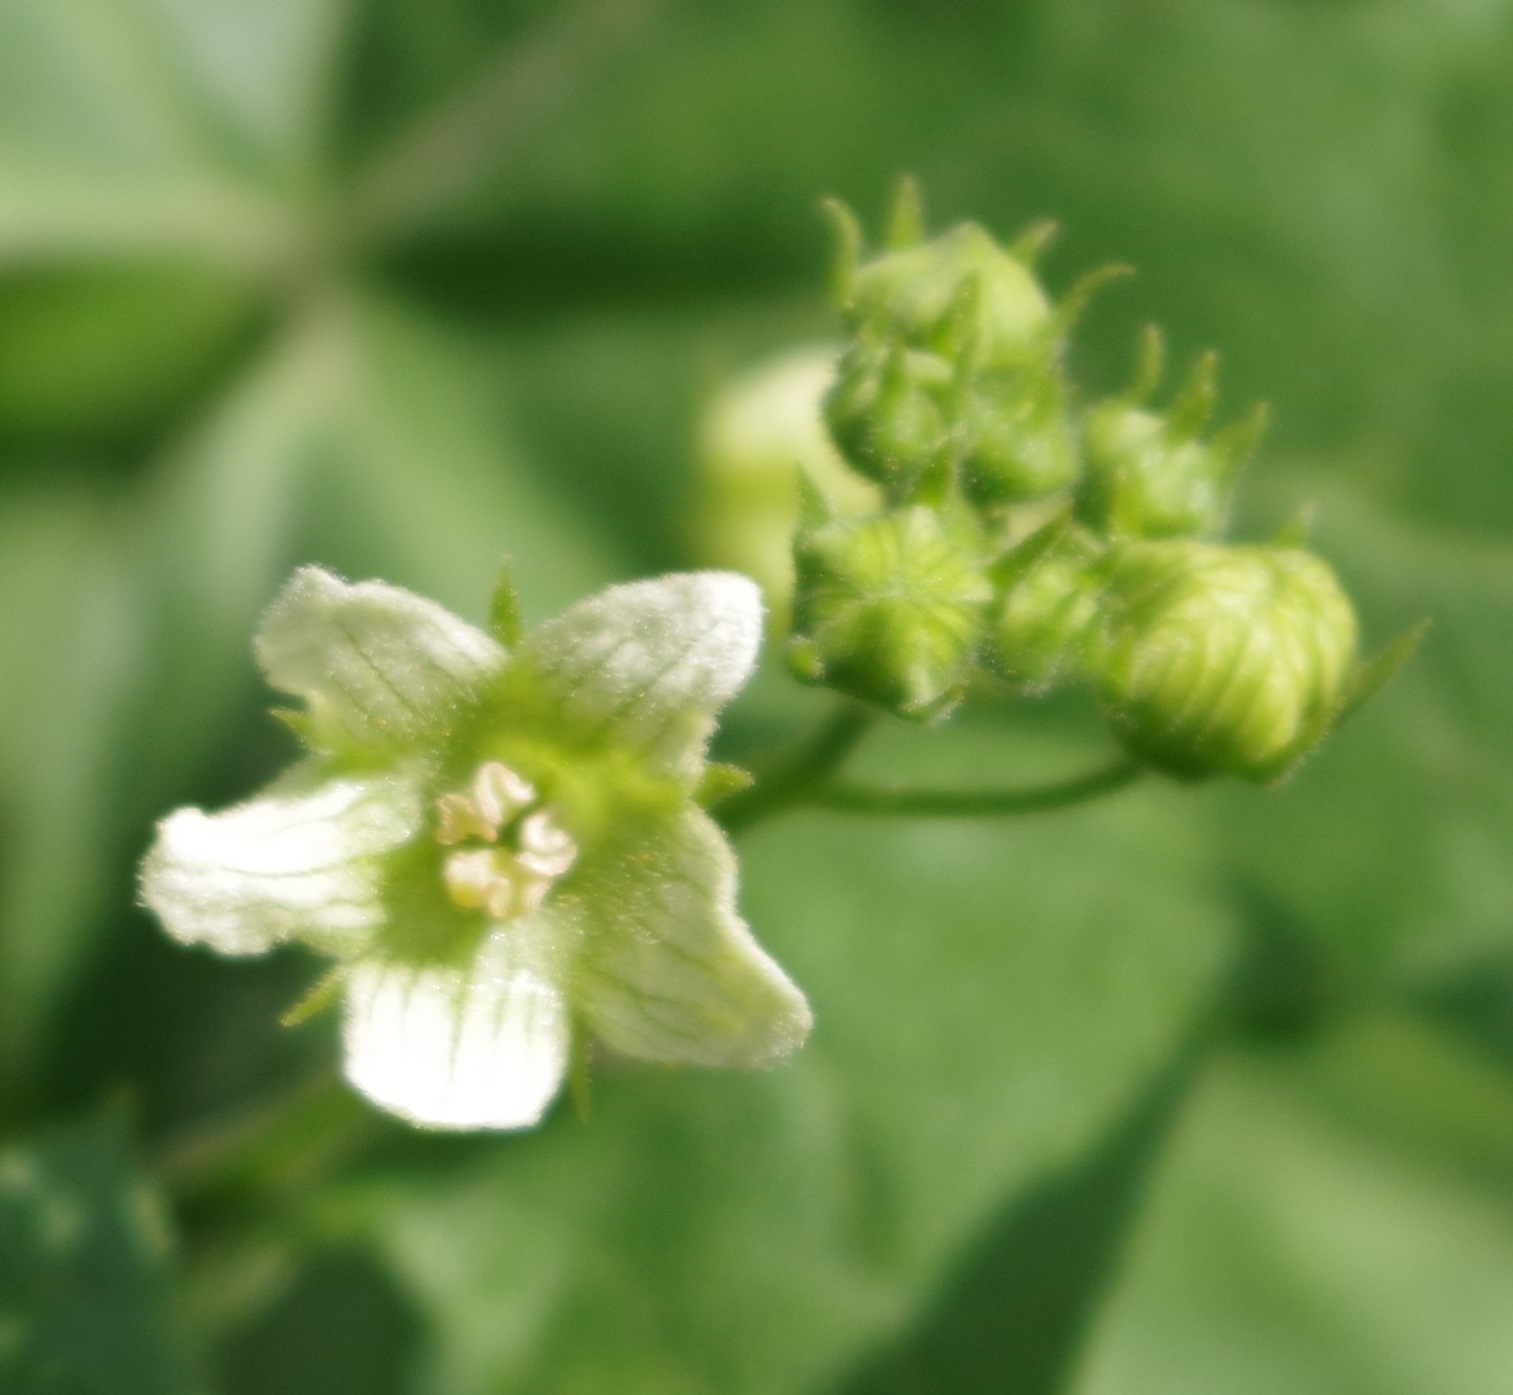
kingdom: Plantae
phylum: Tracheophyta
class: Magnoliopsida
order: Cucurbitales
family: Cucurbitaceae
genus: Bryonia
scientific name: Bryonia dioica
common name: White bryony
